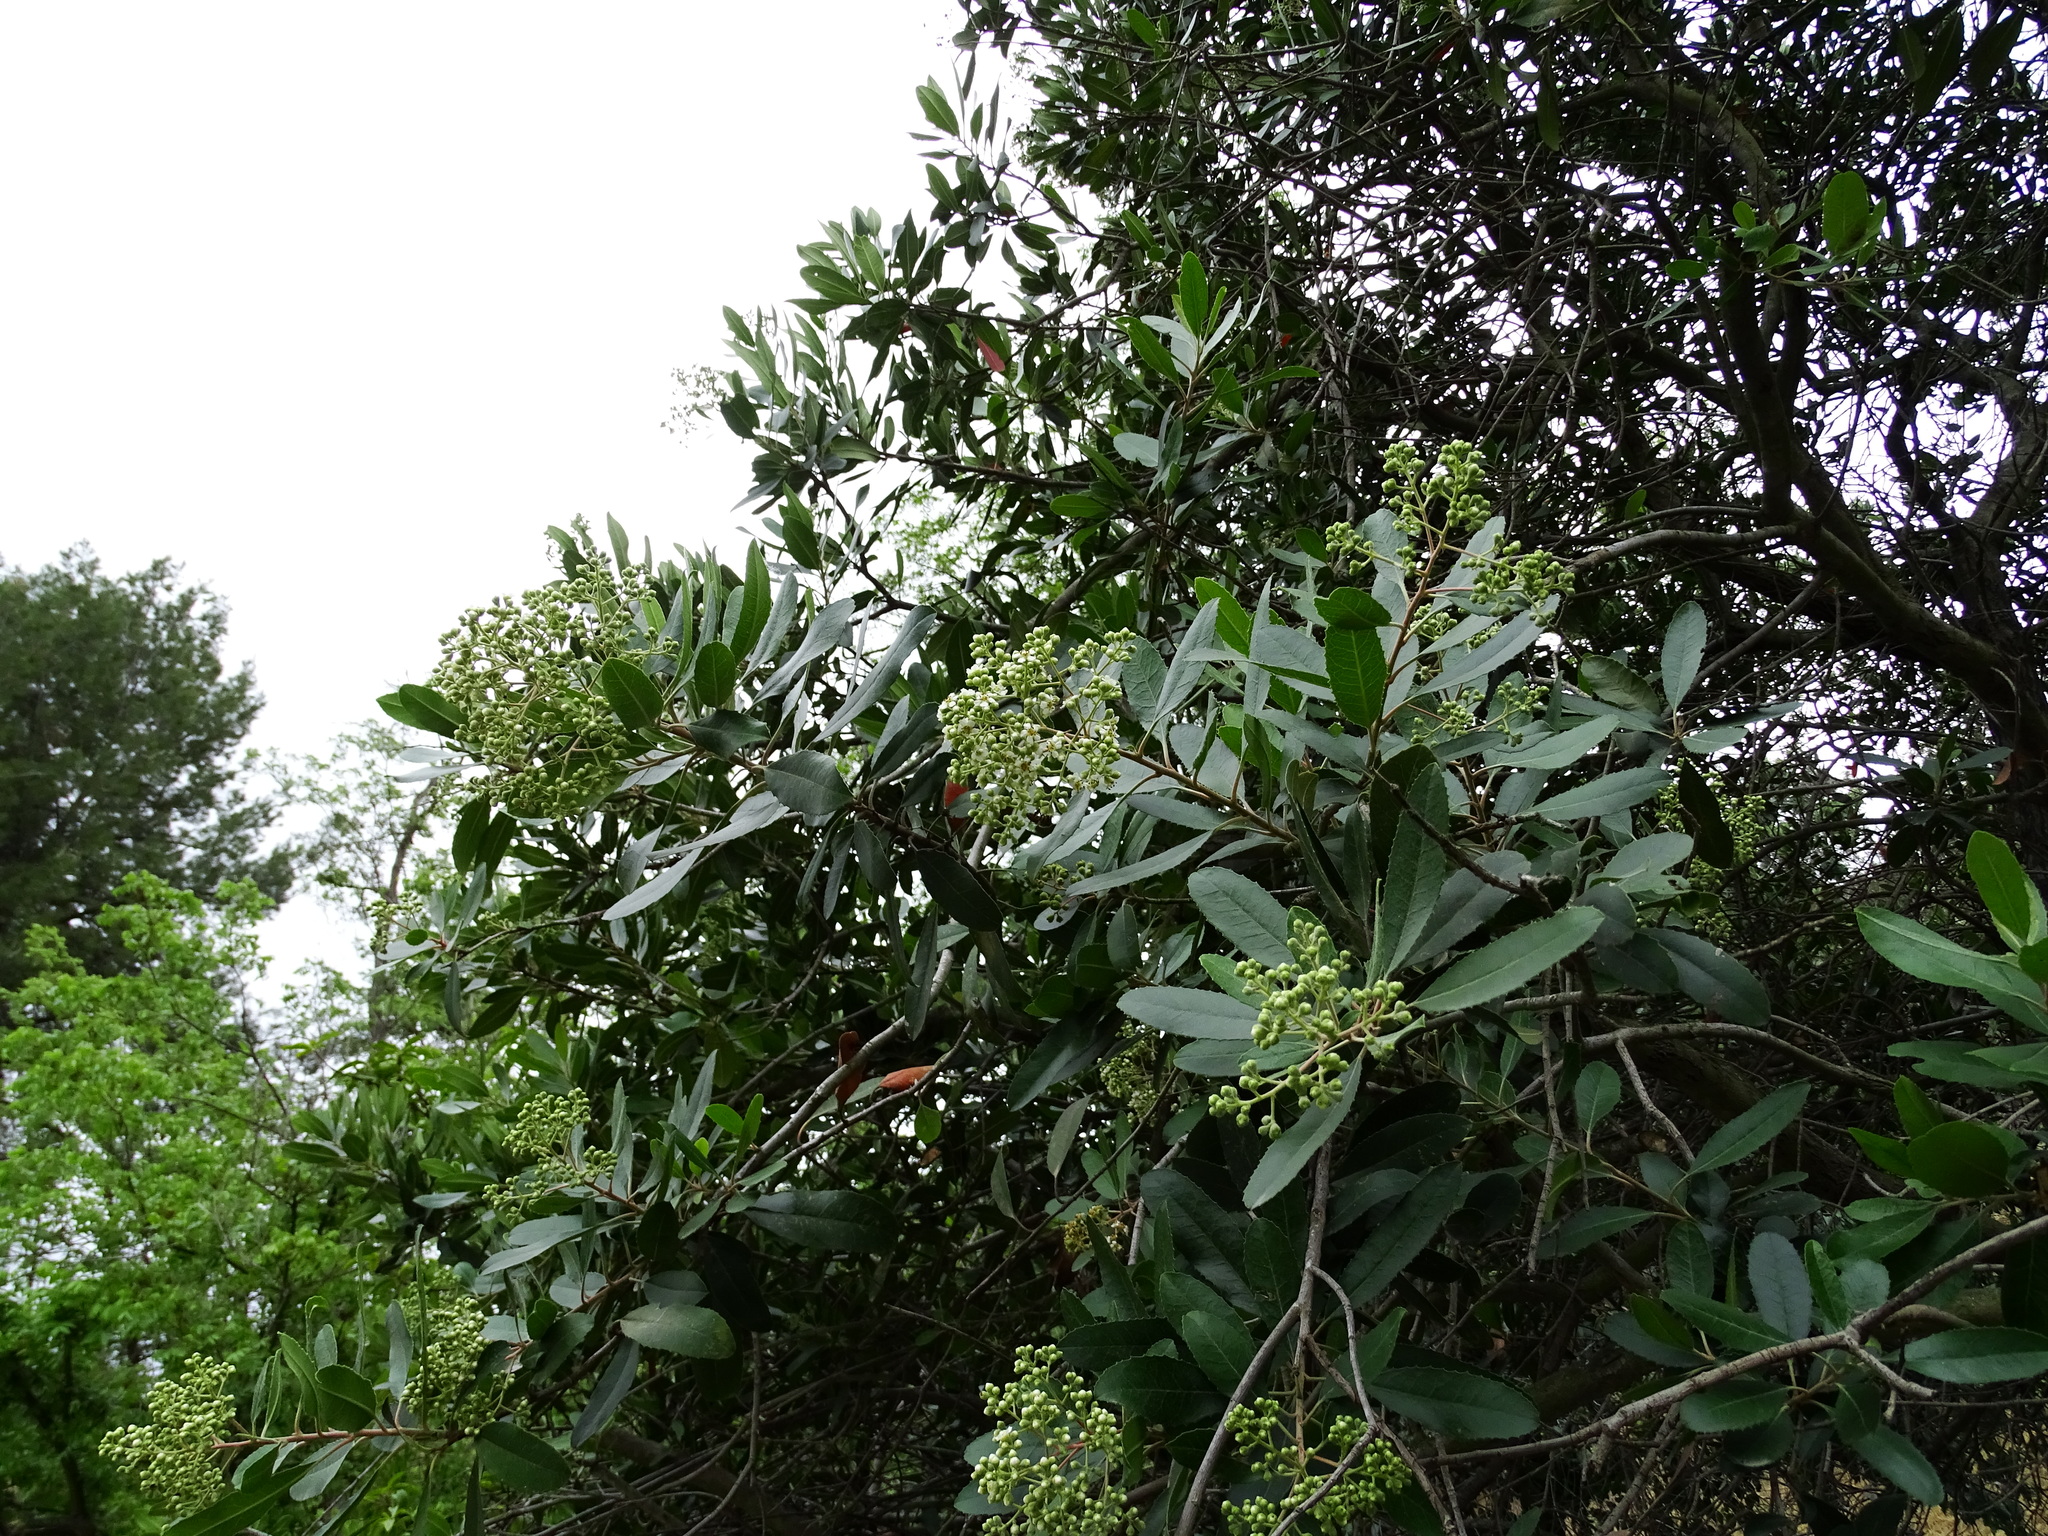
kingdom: Plantae
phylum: Tracheophyta
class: Magnoliopsida
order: Rosales
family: Rosaceae
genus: Heteromeles
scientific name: Heteromeles arbutifolia
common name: California-holly
